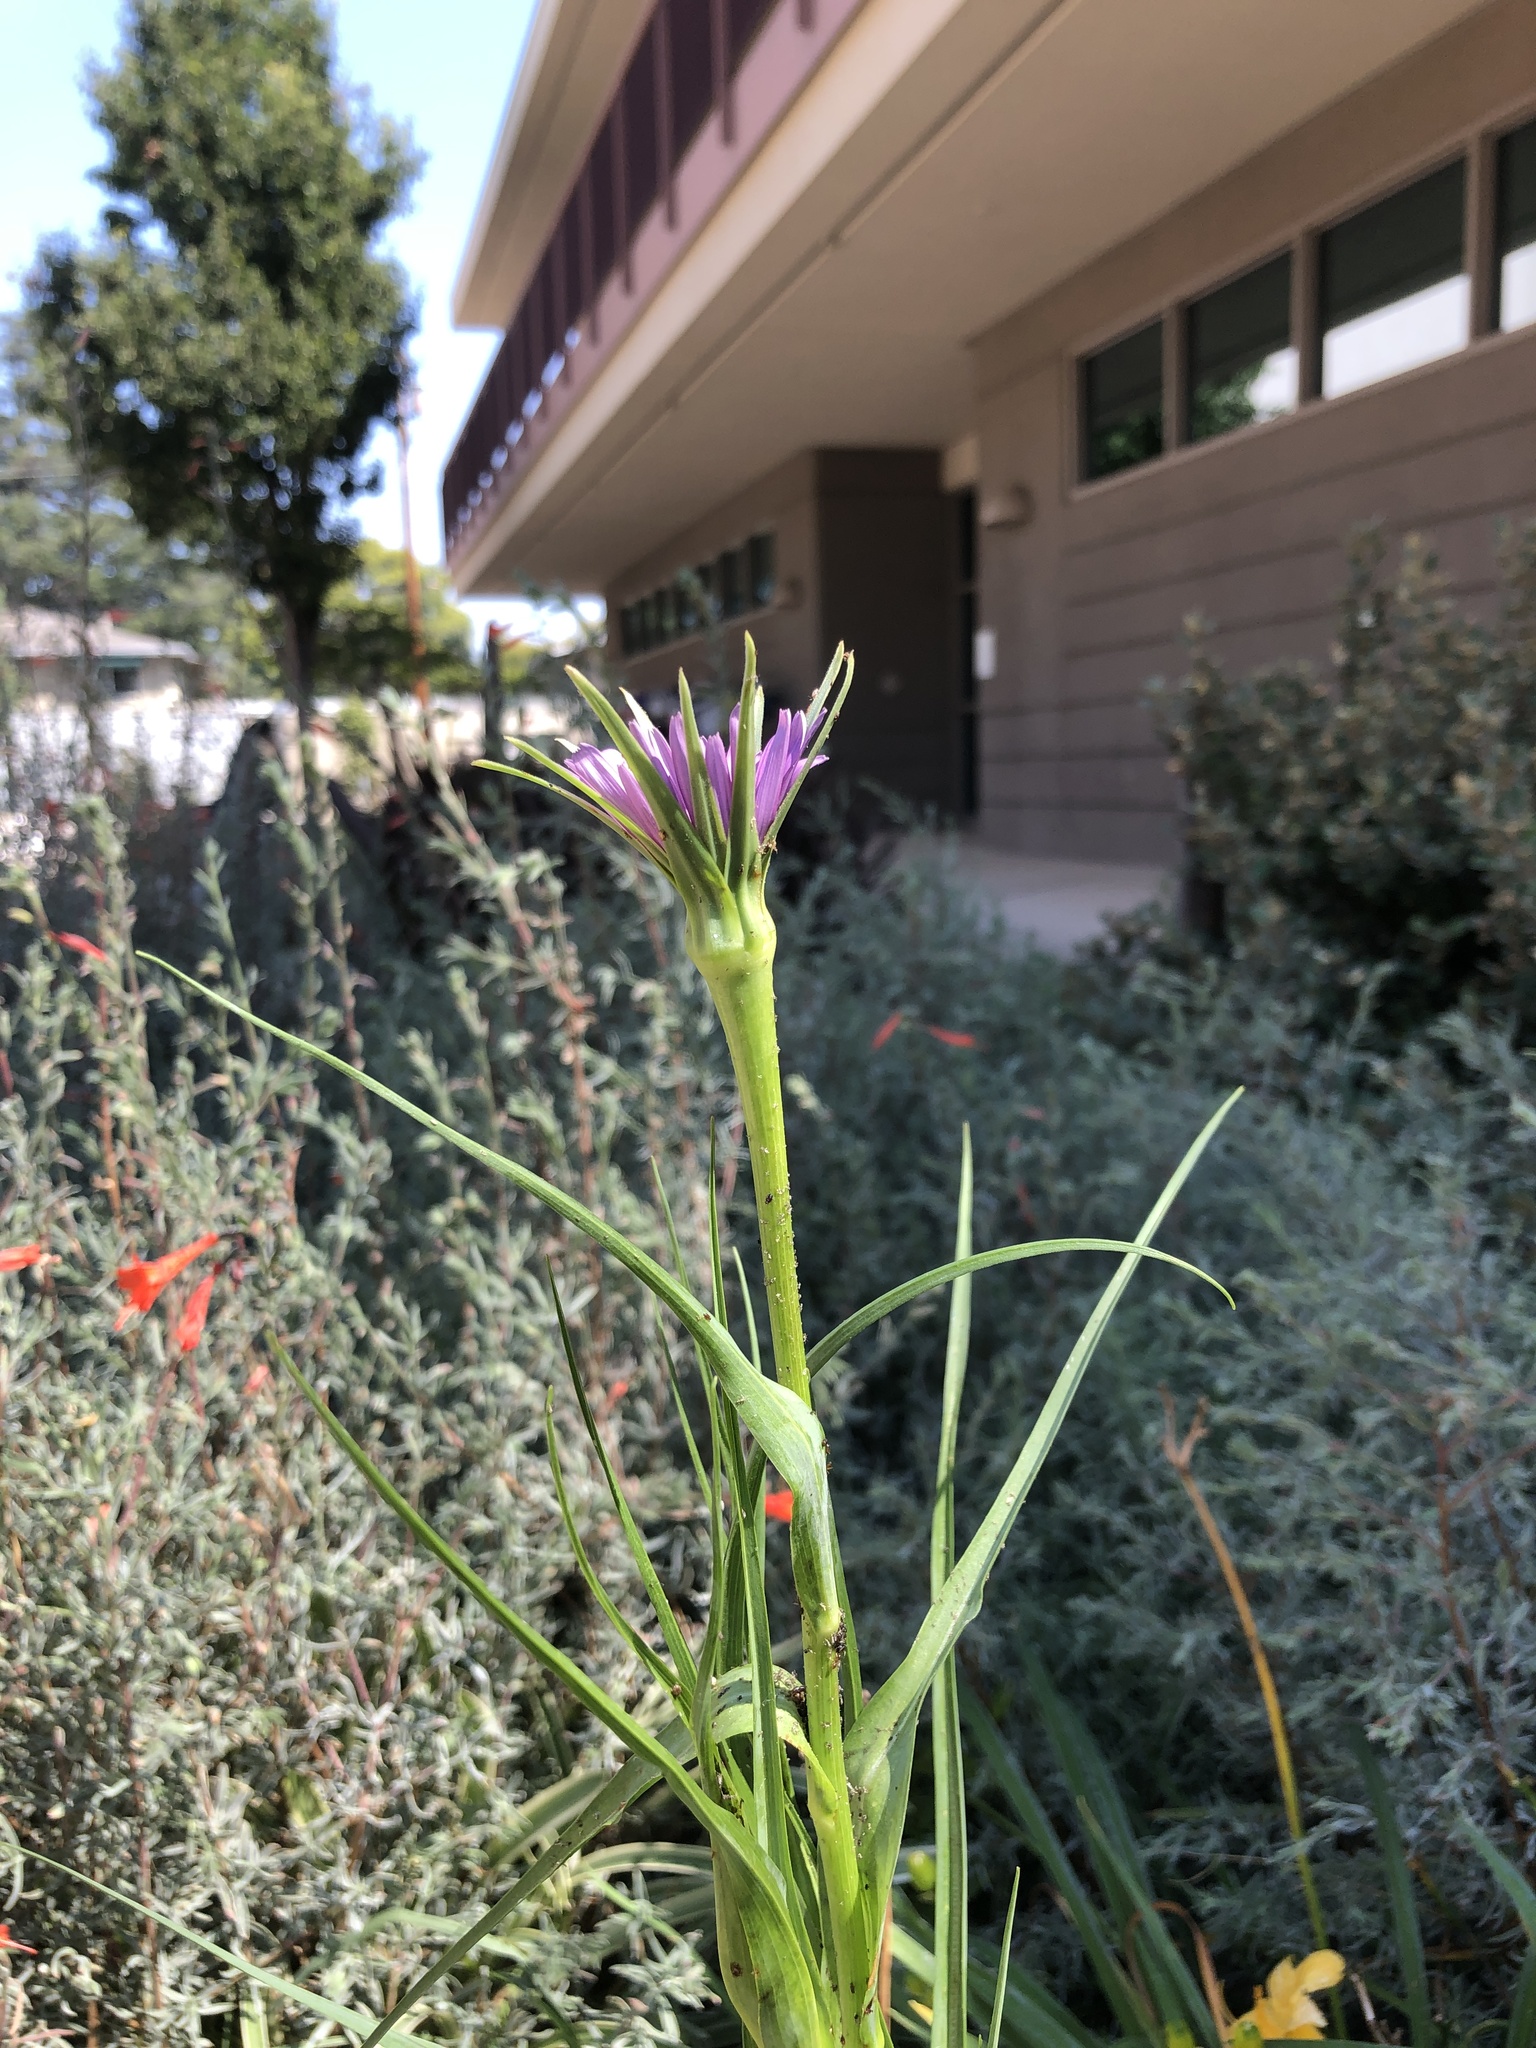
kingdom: Plantae
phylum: Tracheophyta
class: Magnoliopsida
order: Asterales
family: Asteraceae
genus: Tragopogon
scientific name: Tragopogon porrifolius
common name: Salsify
